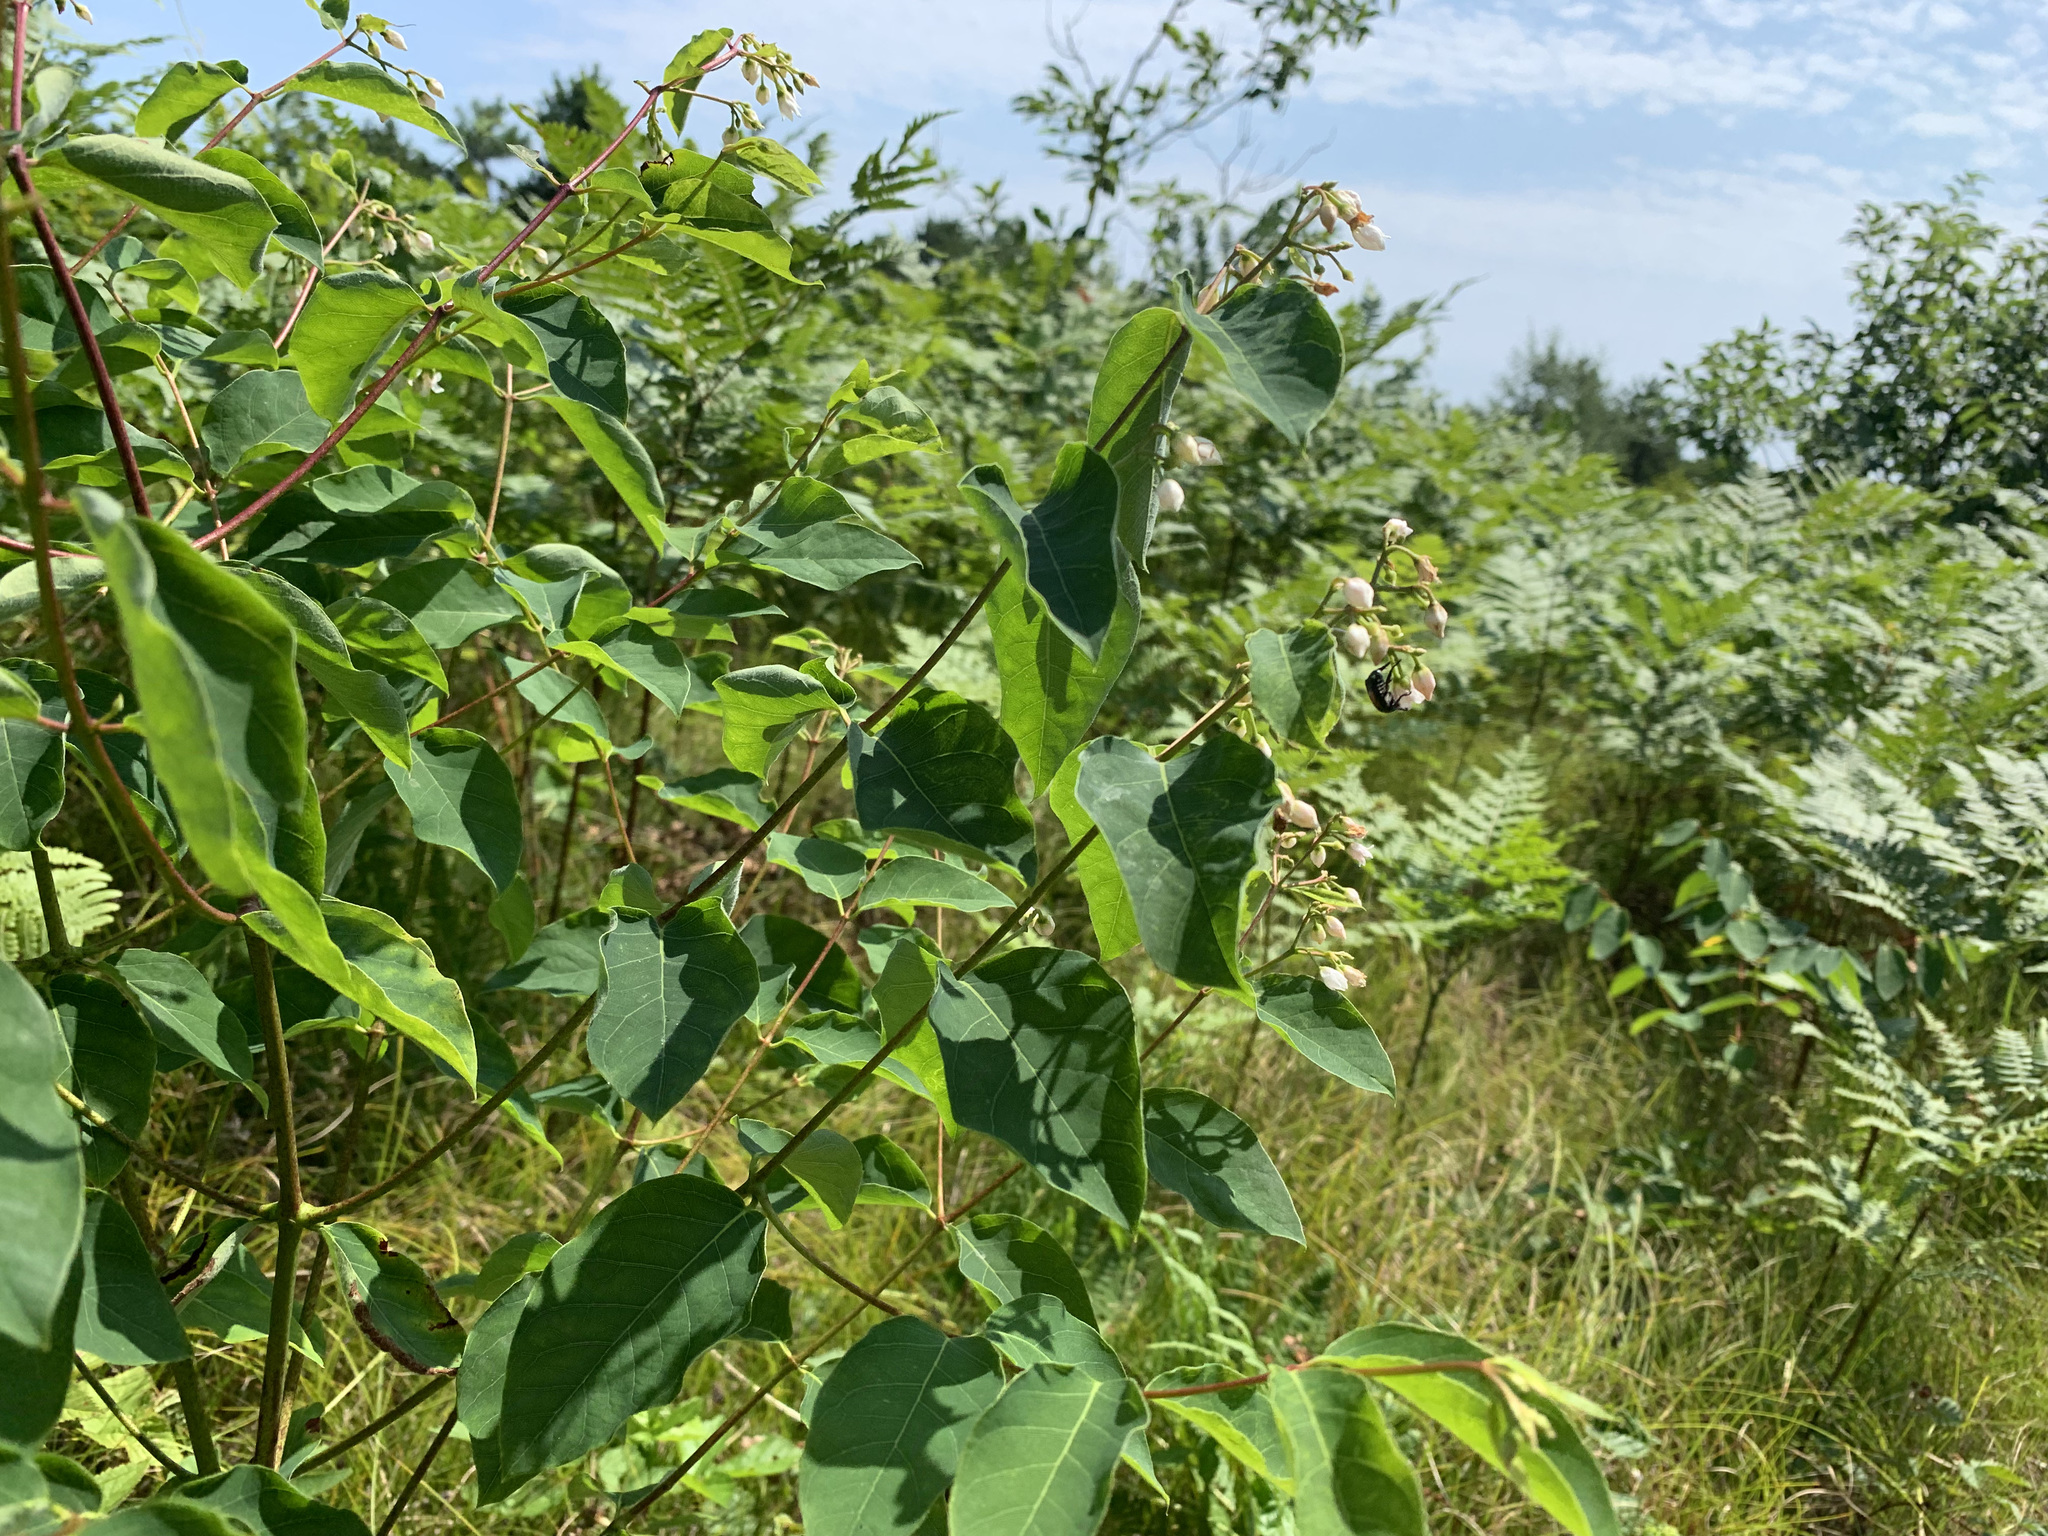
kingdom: Plantae
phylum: Tracheophyta
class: Magnoliopsida
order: Gentianales
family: Apocynaceae
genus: Apocynum
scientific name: Apocynum androsaemifolium
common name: Spreading dogbane
